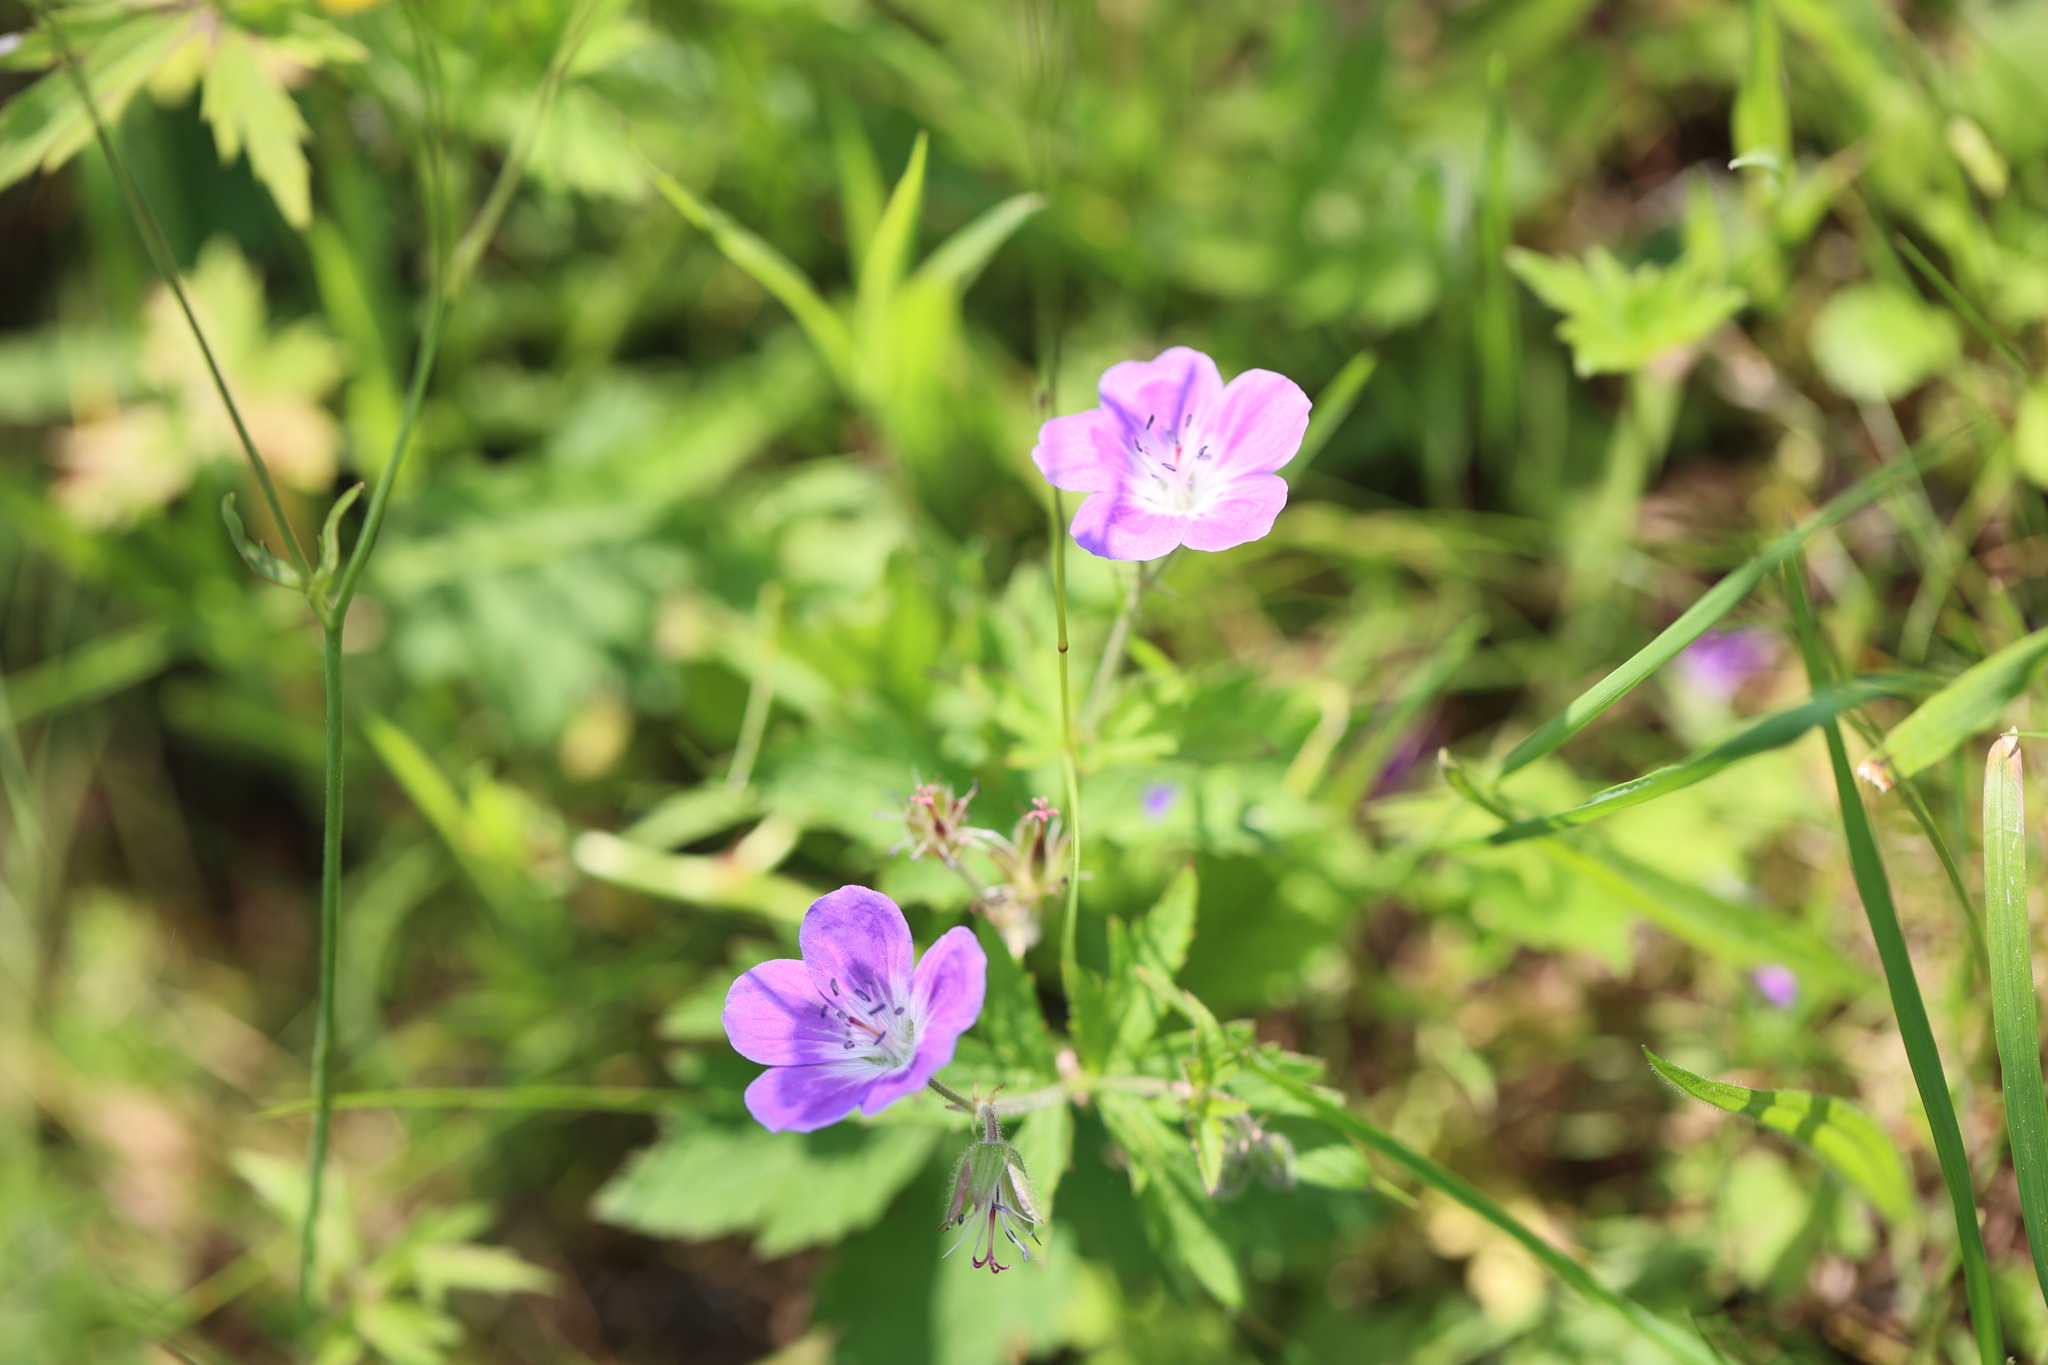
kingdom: Plantae
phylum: Tracheophyta
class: Magnoliopsida
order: Geraniales
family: Geraniaceae
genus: Geranium
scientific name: Geranium sylvaticum
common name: Wood crane's-bill
